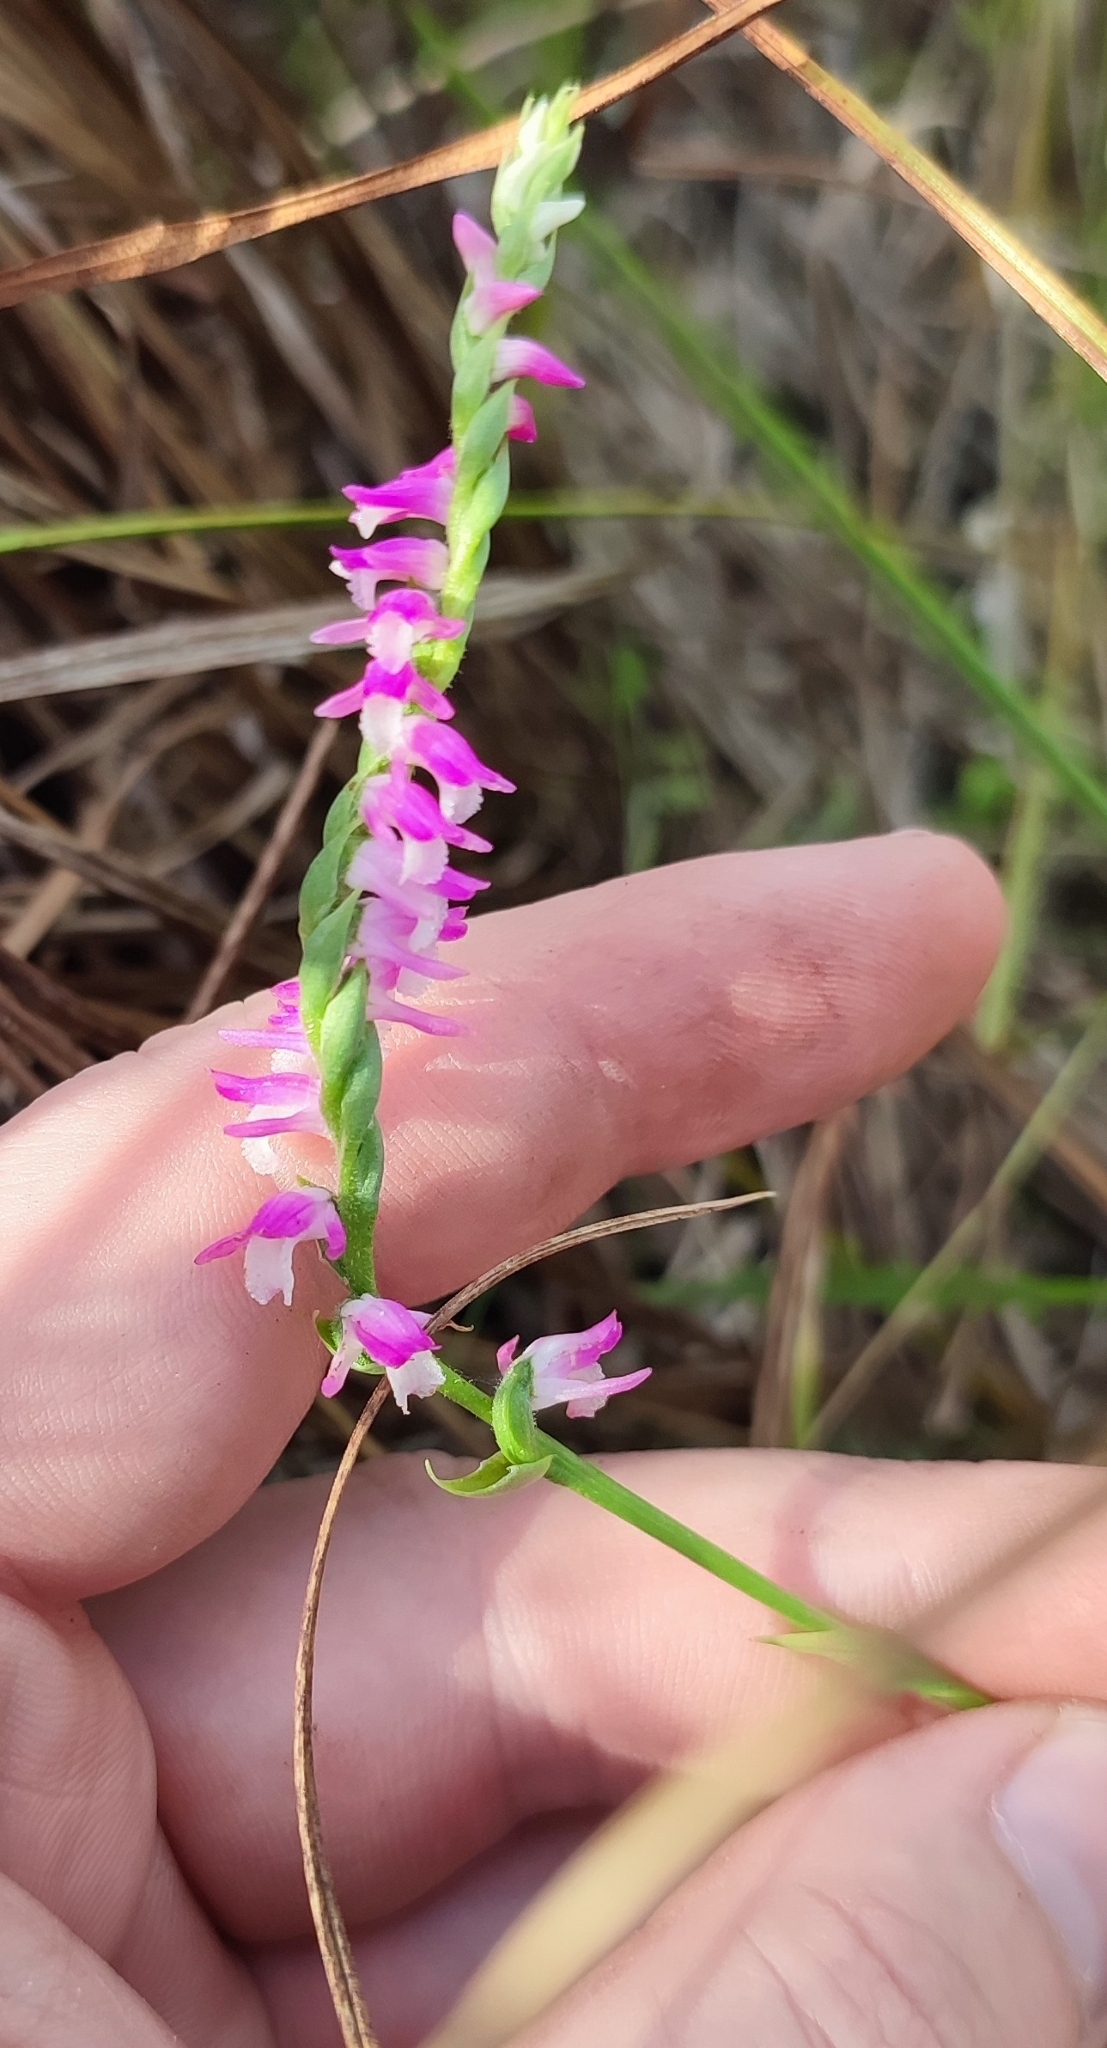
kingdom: Plantae
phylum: Tracheophyta
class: Liliopsida
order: Asparagales
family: Orchidaceae
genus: Spiranthes
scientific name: Spiranthes australis
